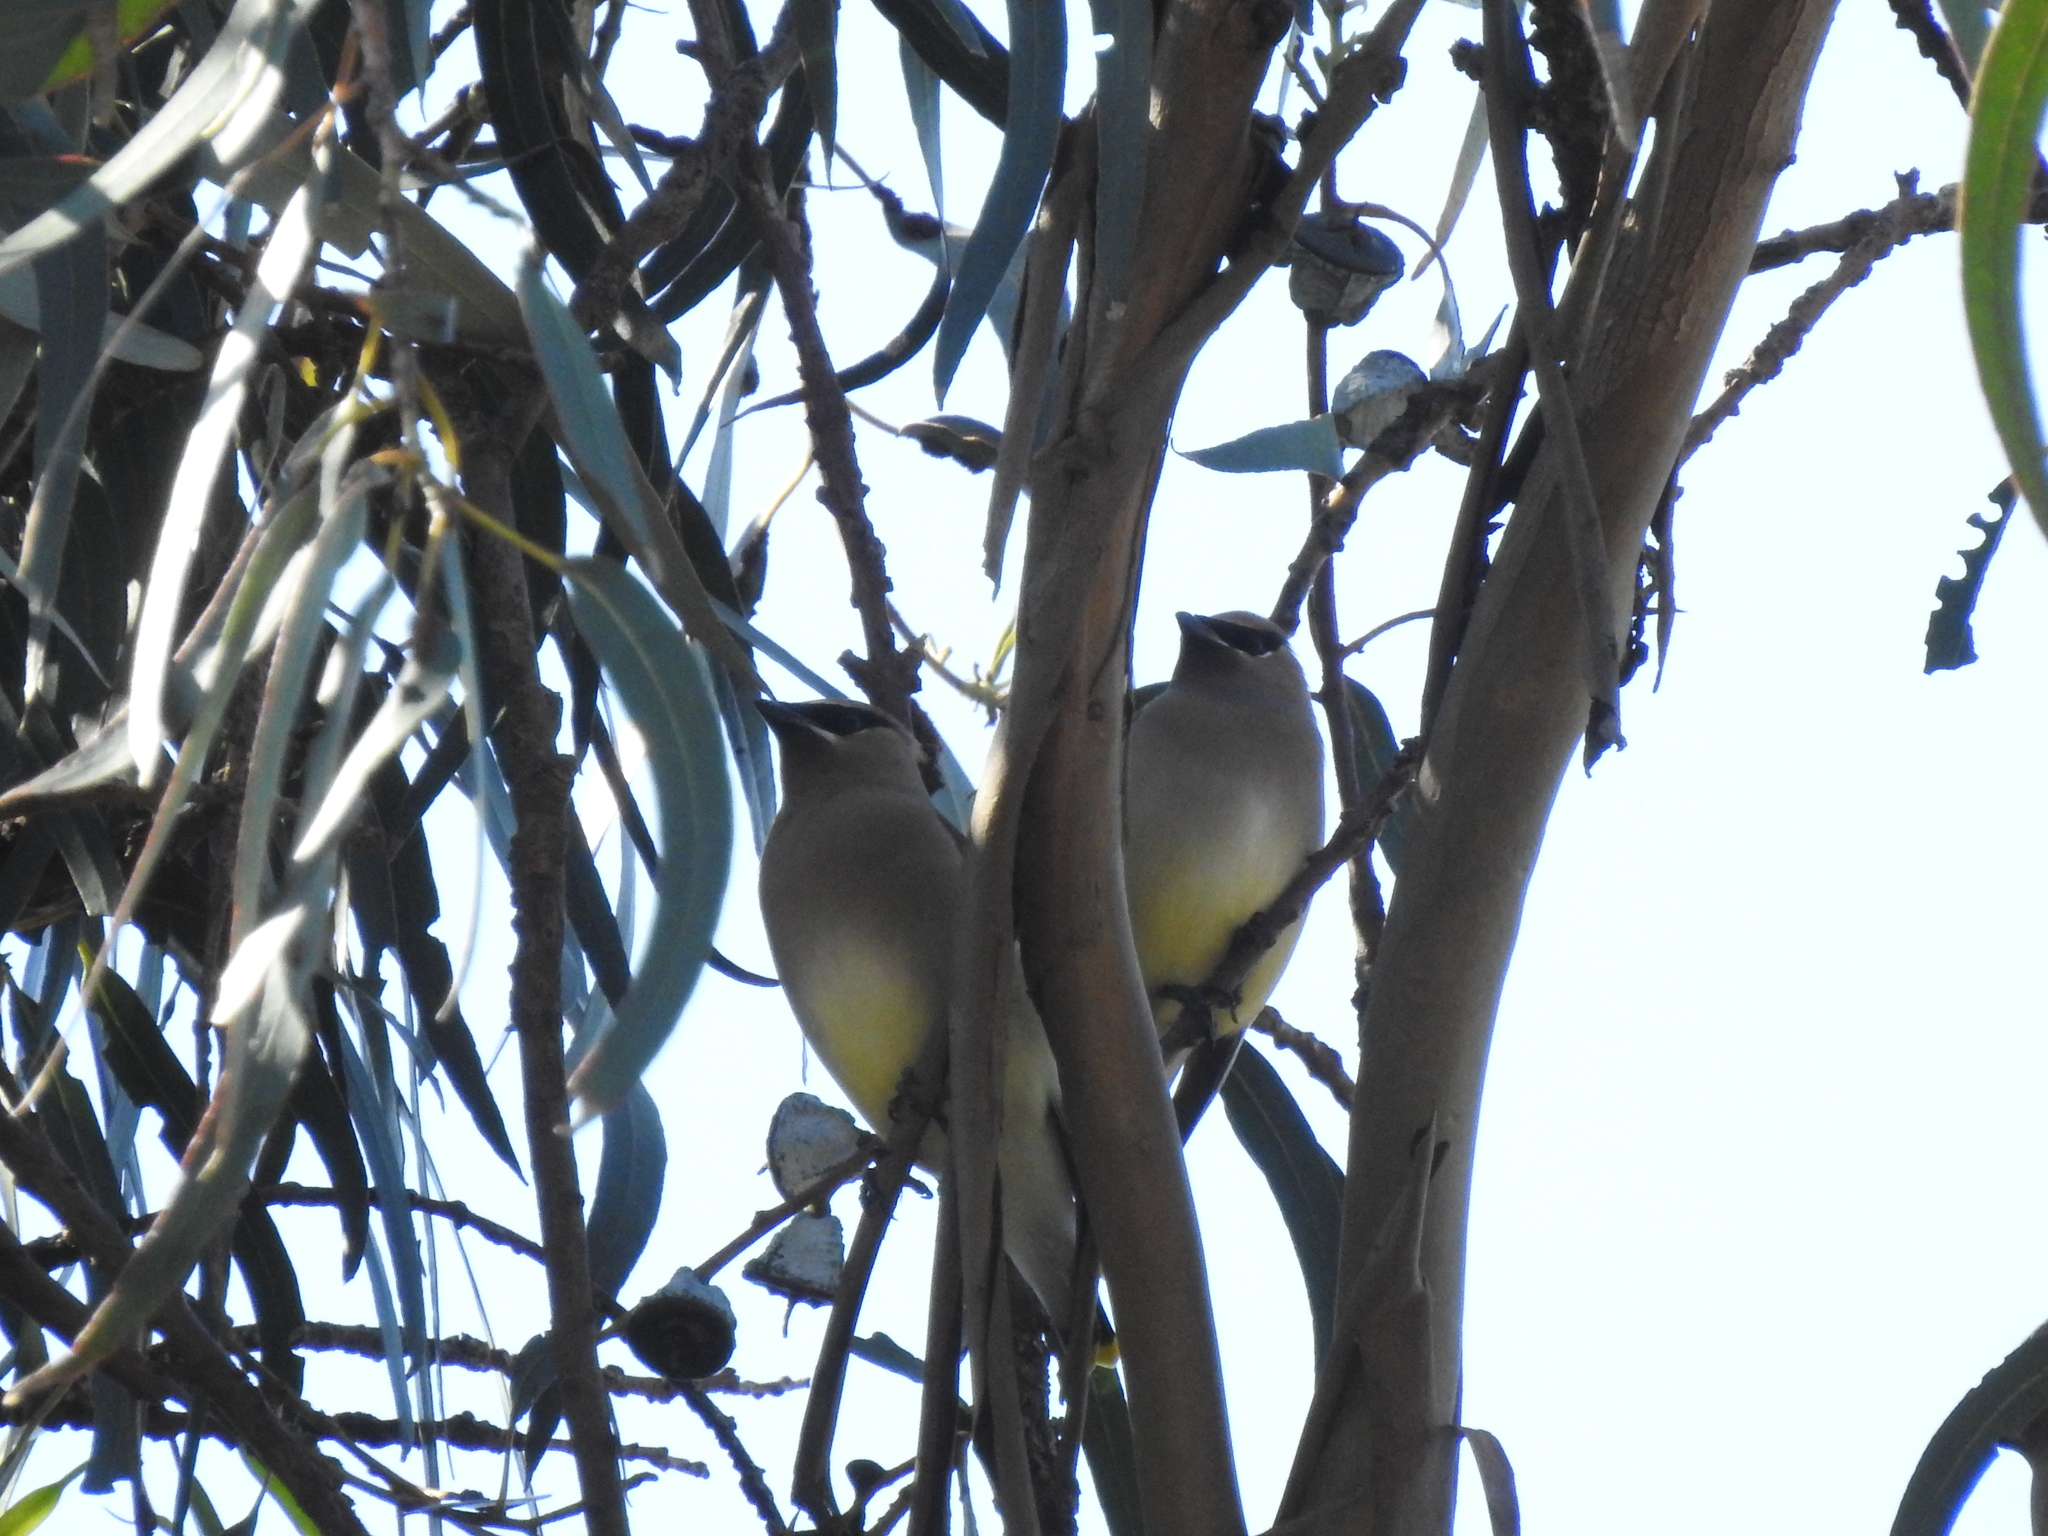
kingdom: Animalia
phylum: Chordata
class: Aves
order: Passeriformes
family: Bombycillidae
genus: Bombycilla
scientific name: Bombycilla cedrorum
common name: Cedar waxwing
